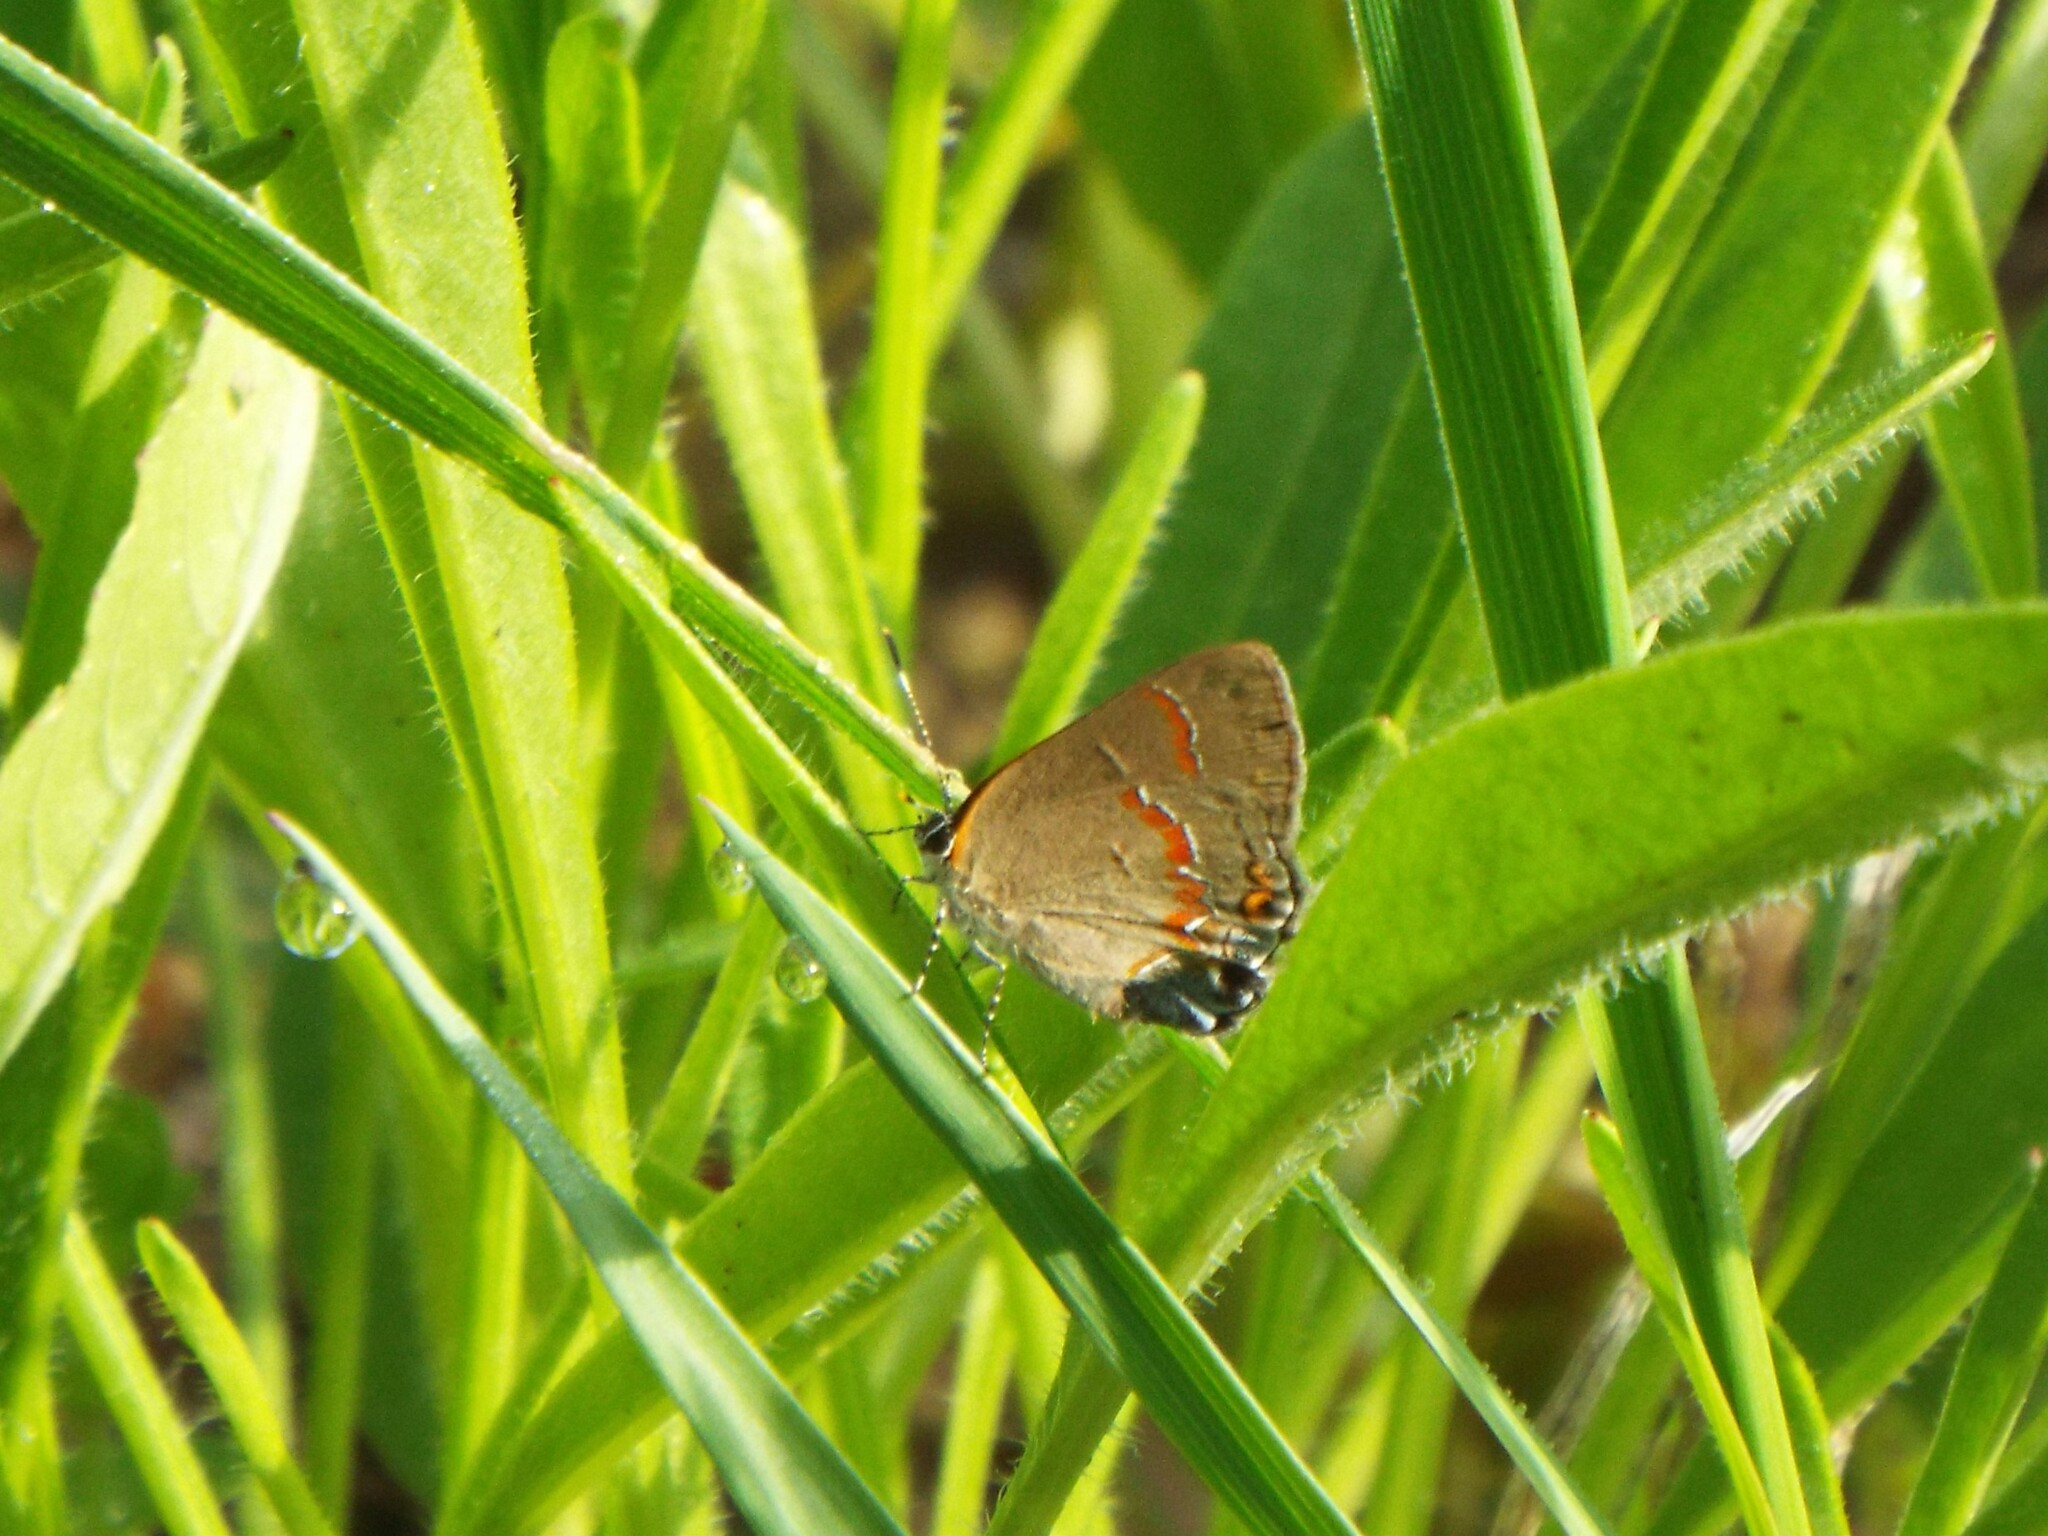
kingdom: Animalia
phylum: Arthropoda
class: Insecta
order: Lepidoptera
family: Lycaenidae
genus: Calycopis
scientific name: Calycopis cecrops
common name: Red-banded hairstreak
